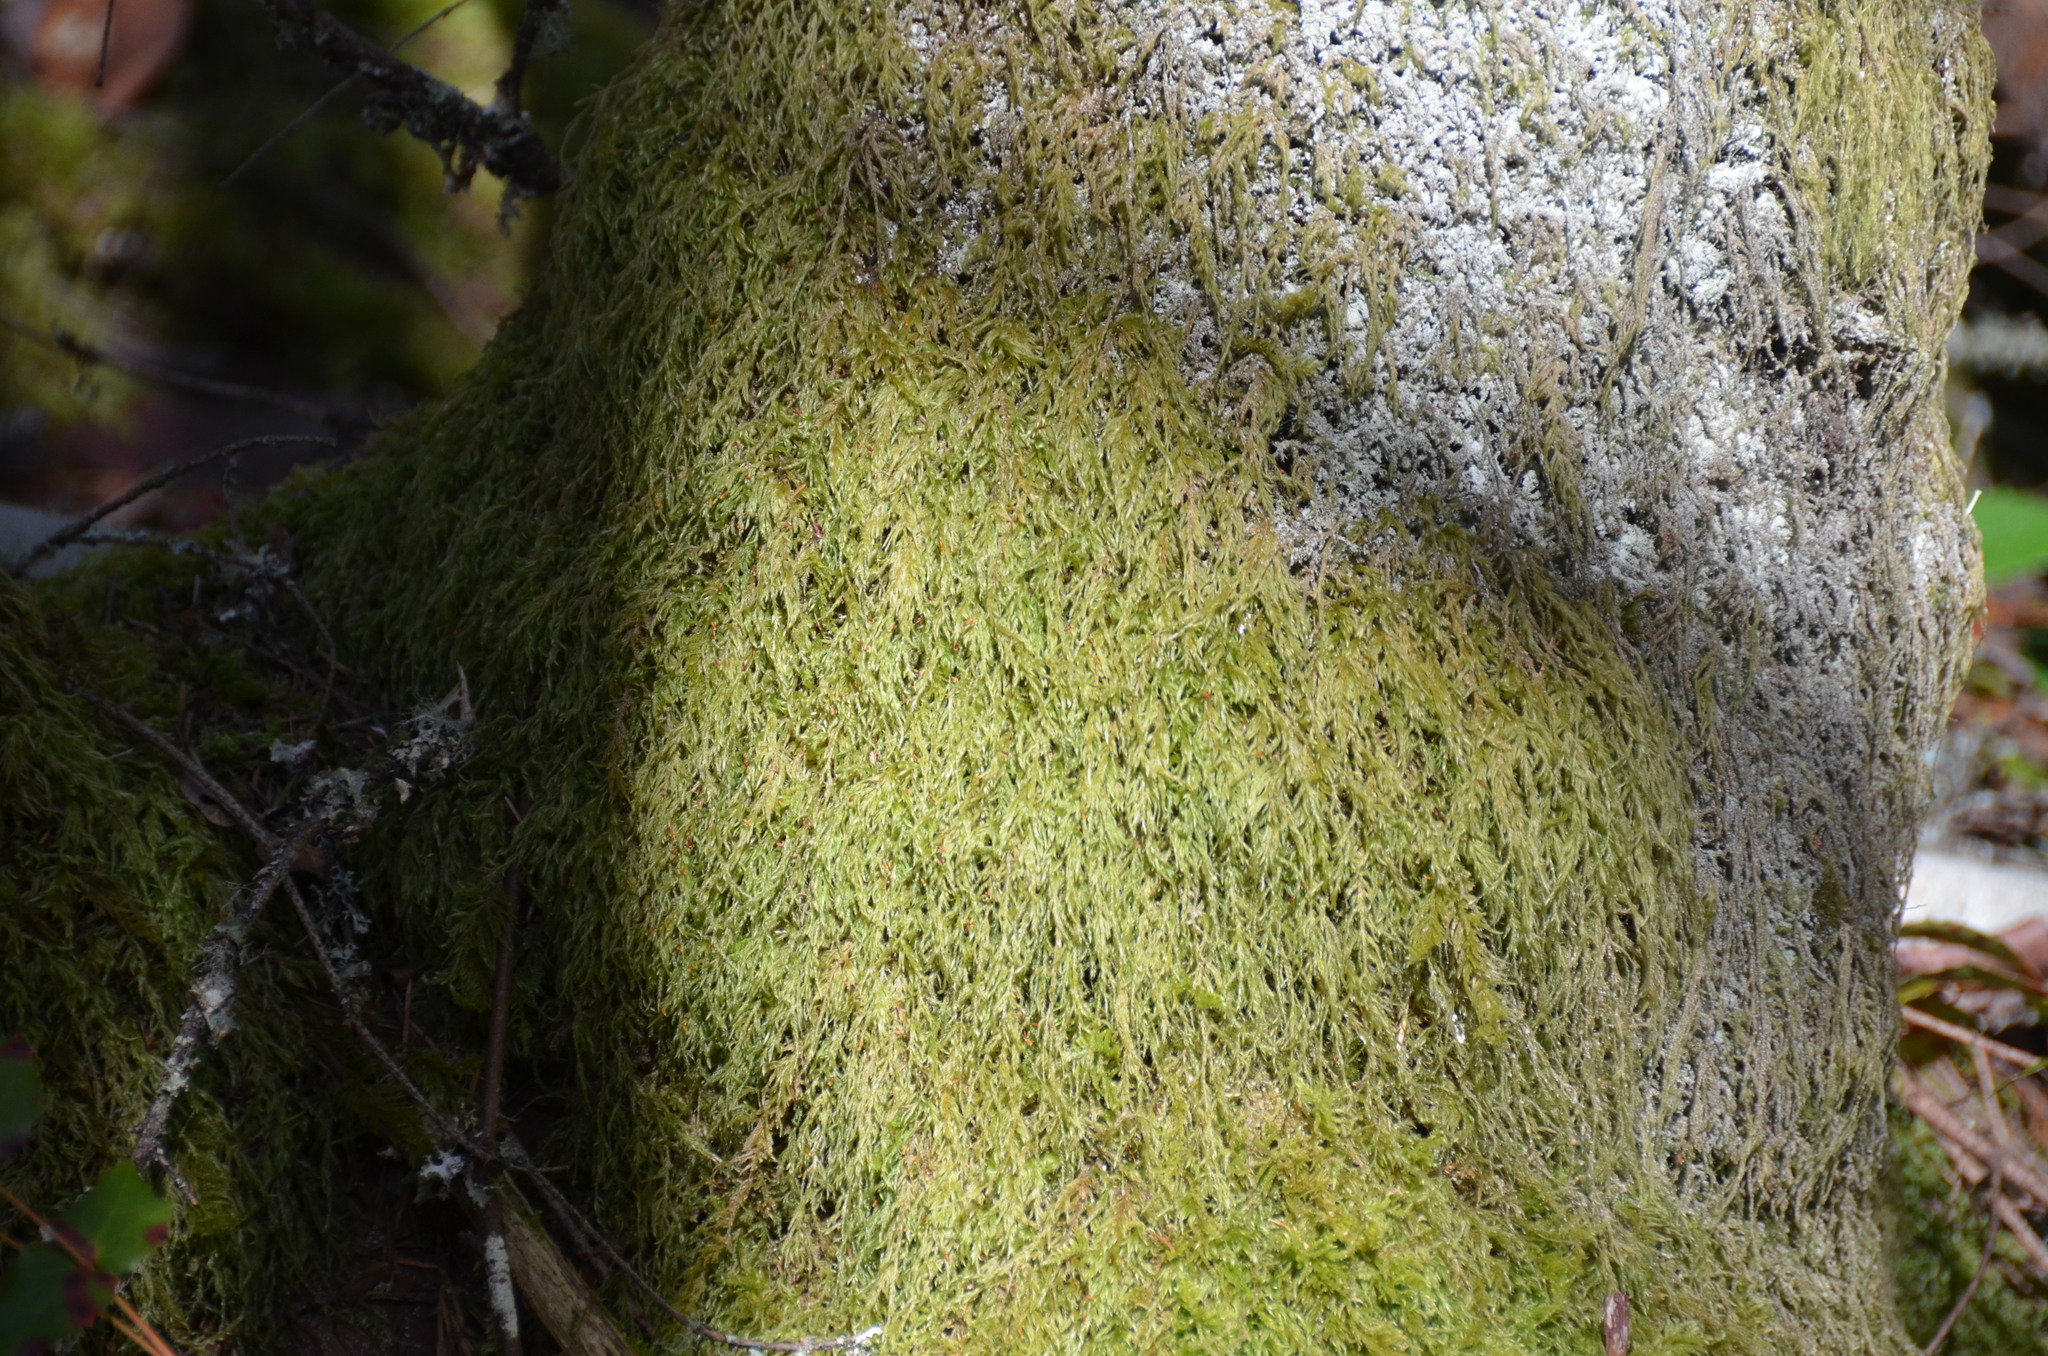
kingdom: Plantae
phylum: Bryophyta
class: Bryopsida
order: Hypnales
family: Lembophyllaceae
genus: Pseudisothecium
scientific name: Pseudisothecium stoloniferum
